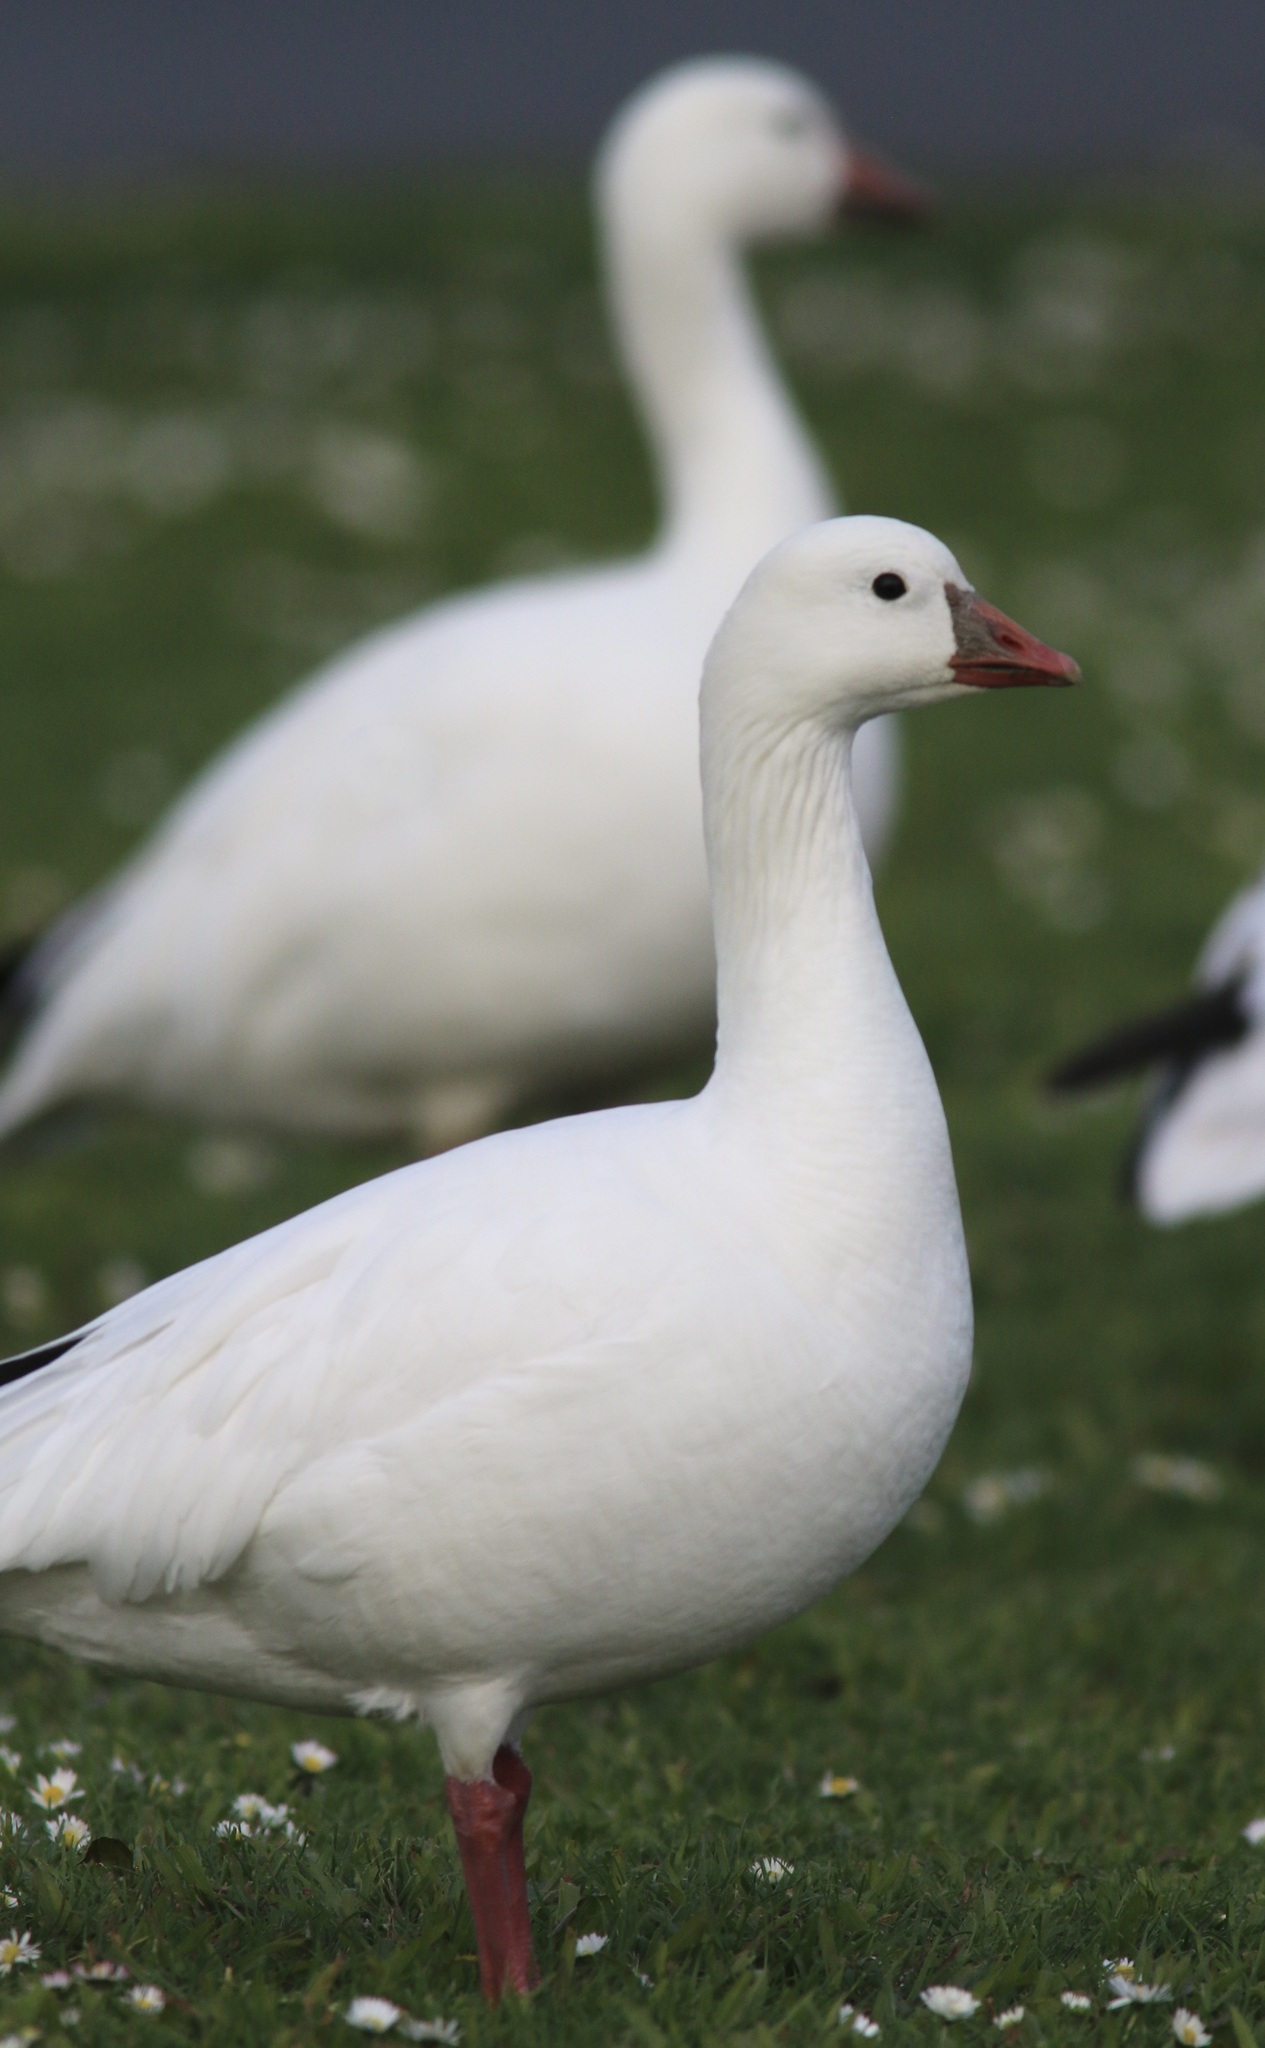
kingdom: Animalia
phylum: Chordata
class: Aves
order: Anseriformes
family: Anatidae
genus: Anser
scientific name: Anser rossii
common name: Ross's goose
